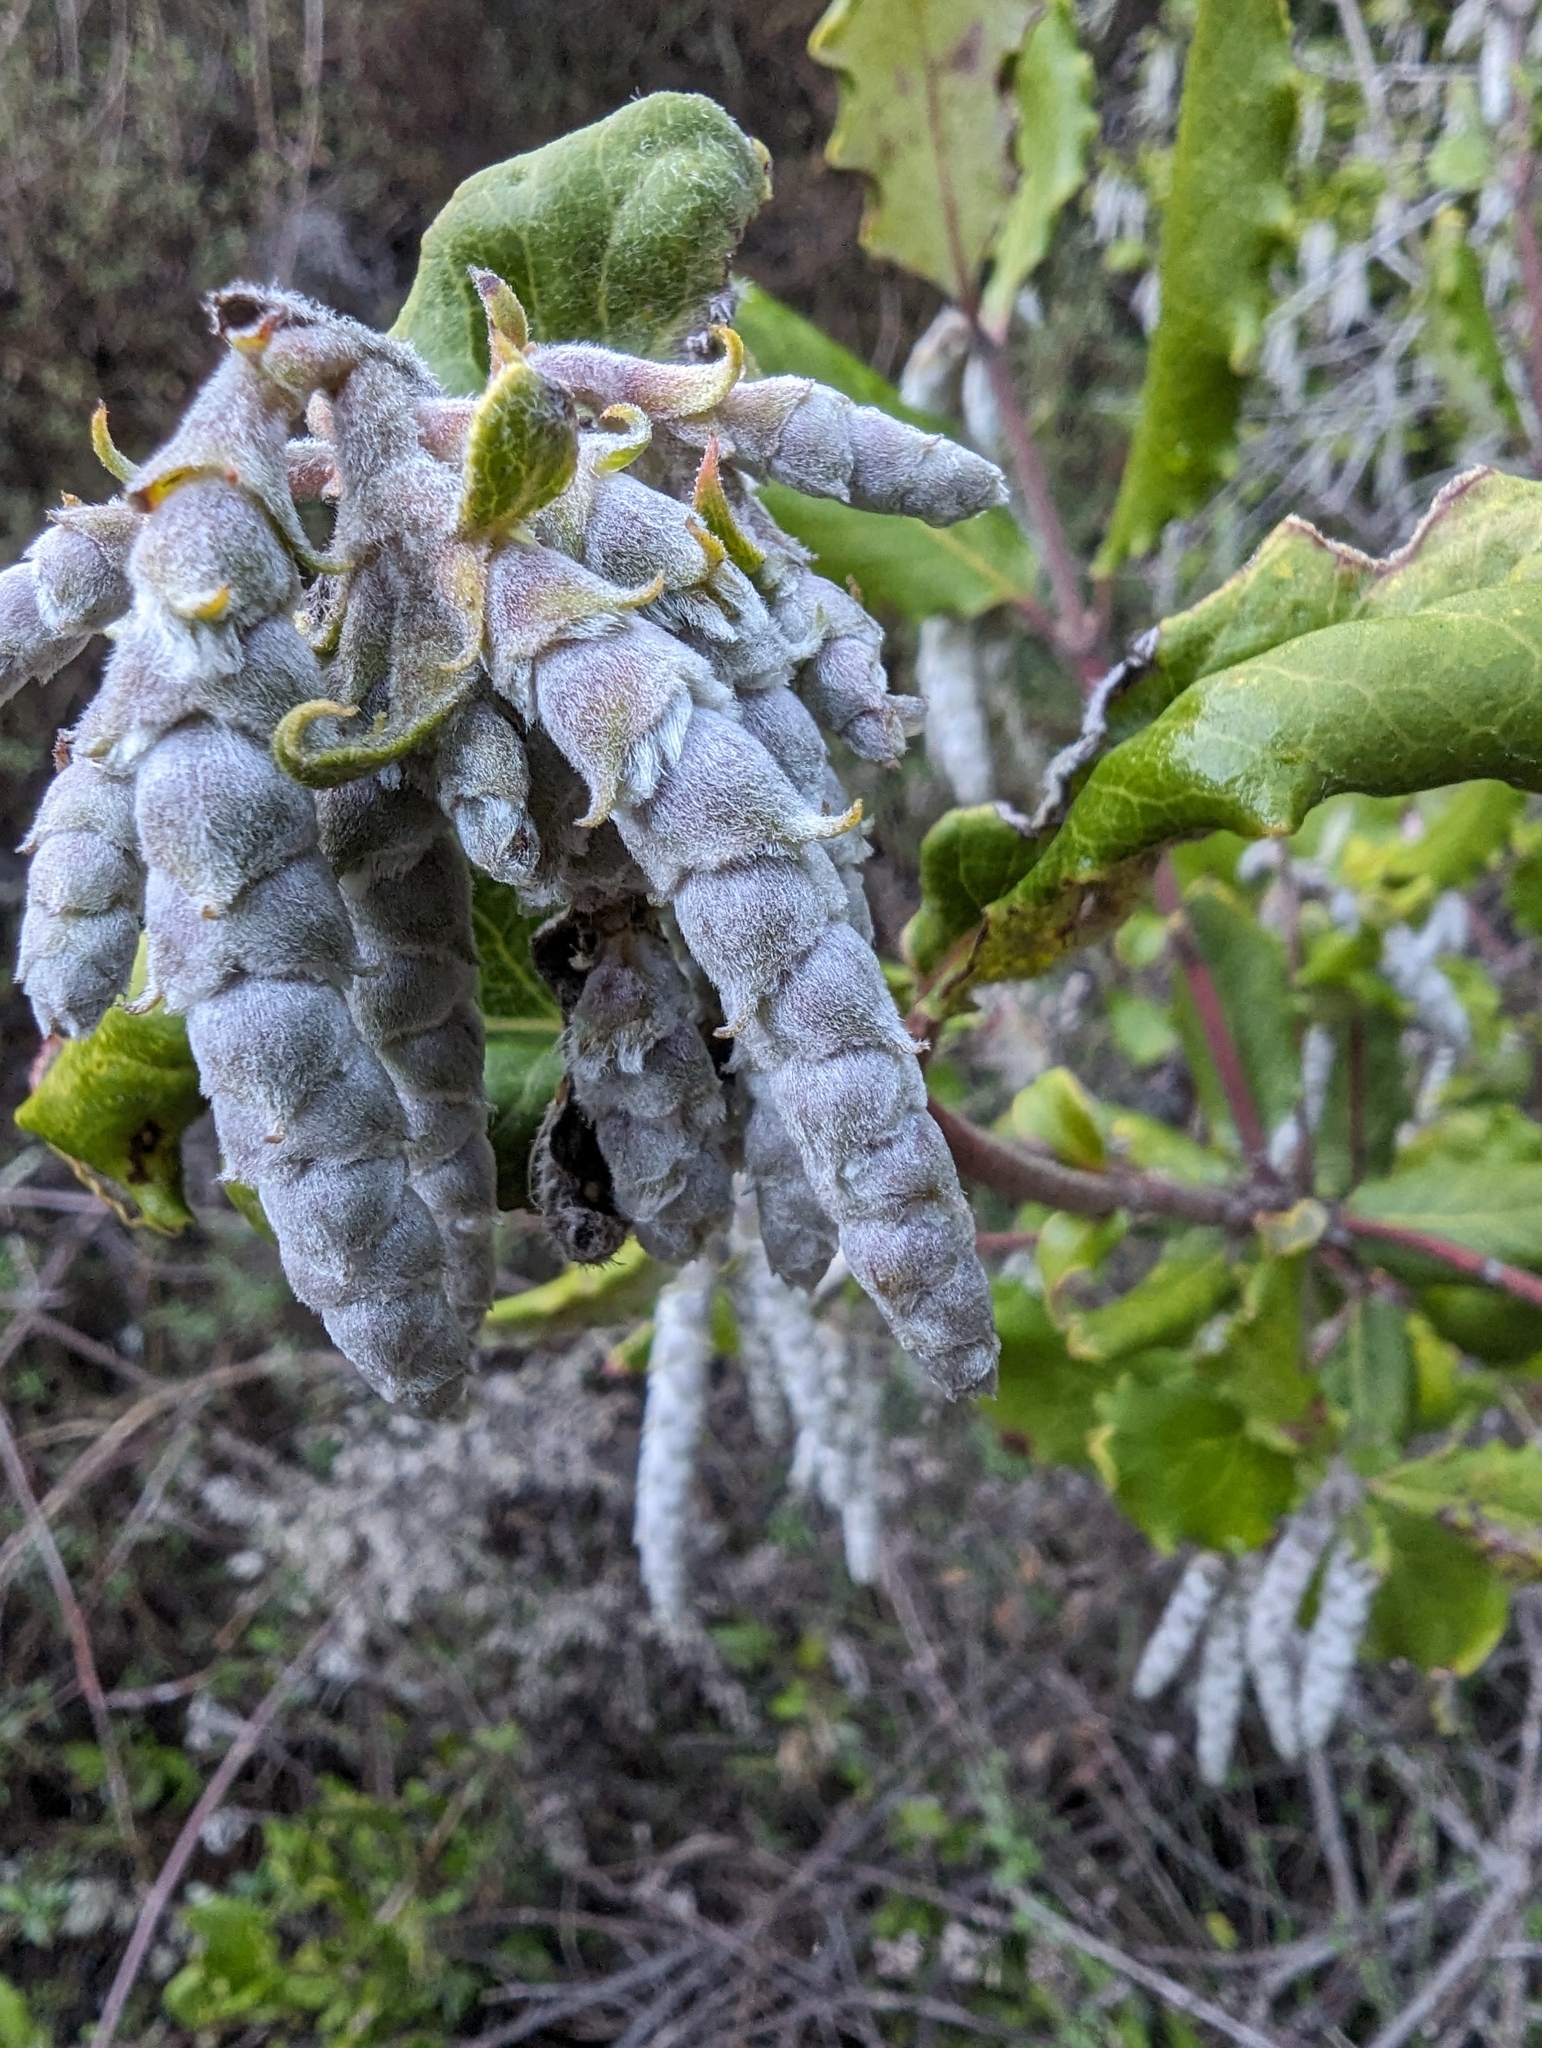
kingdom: Plantae
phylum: Tracheophyta
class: Magnoliopsida
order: Garryales
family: Garryaceae
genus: Garrya
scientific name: Garrya elliptica
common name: Silk-tassel
